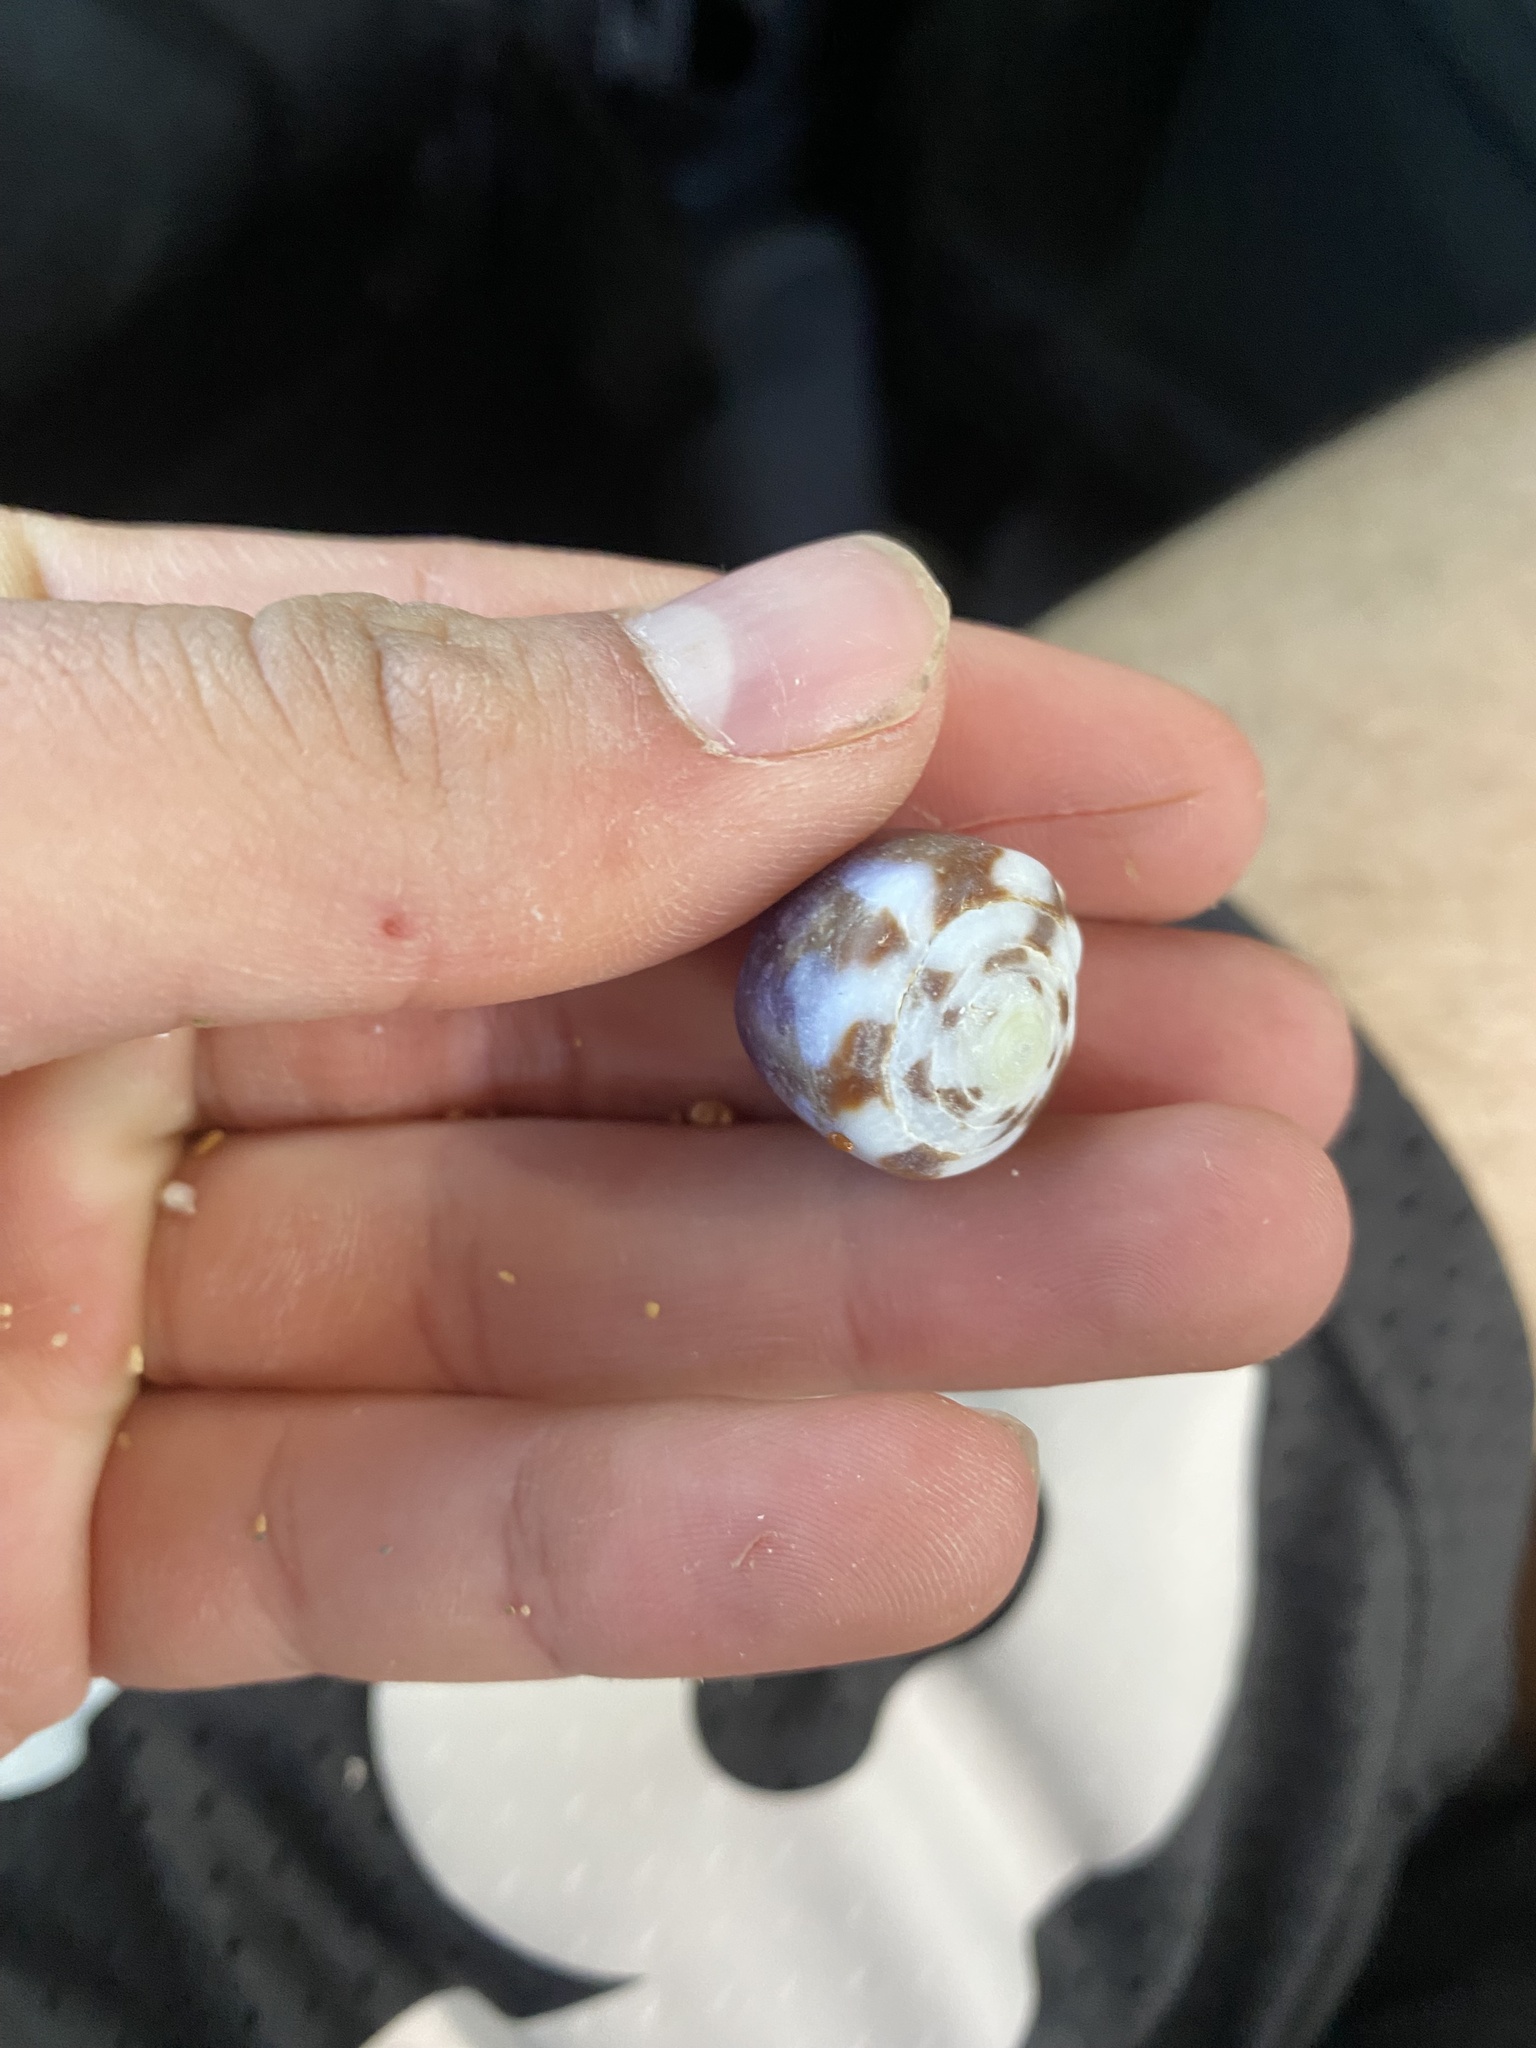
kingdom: Animalia
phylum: Mollusca
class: Gastropoda
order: Neogastropoda
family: Conidae
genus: Conus
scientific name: Conus rattus
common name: Rat cone
